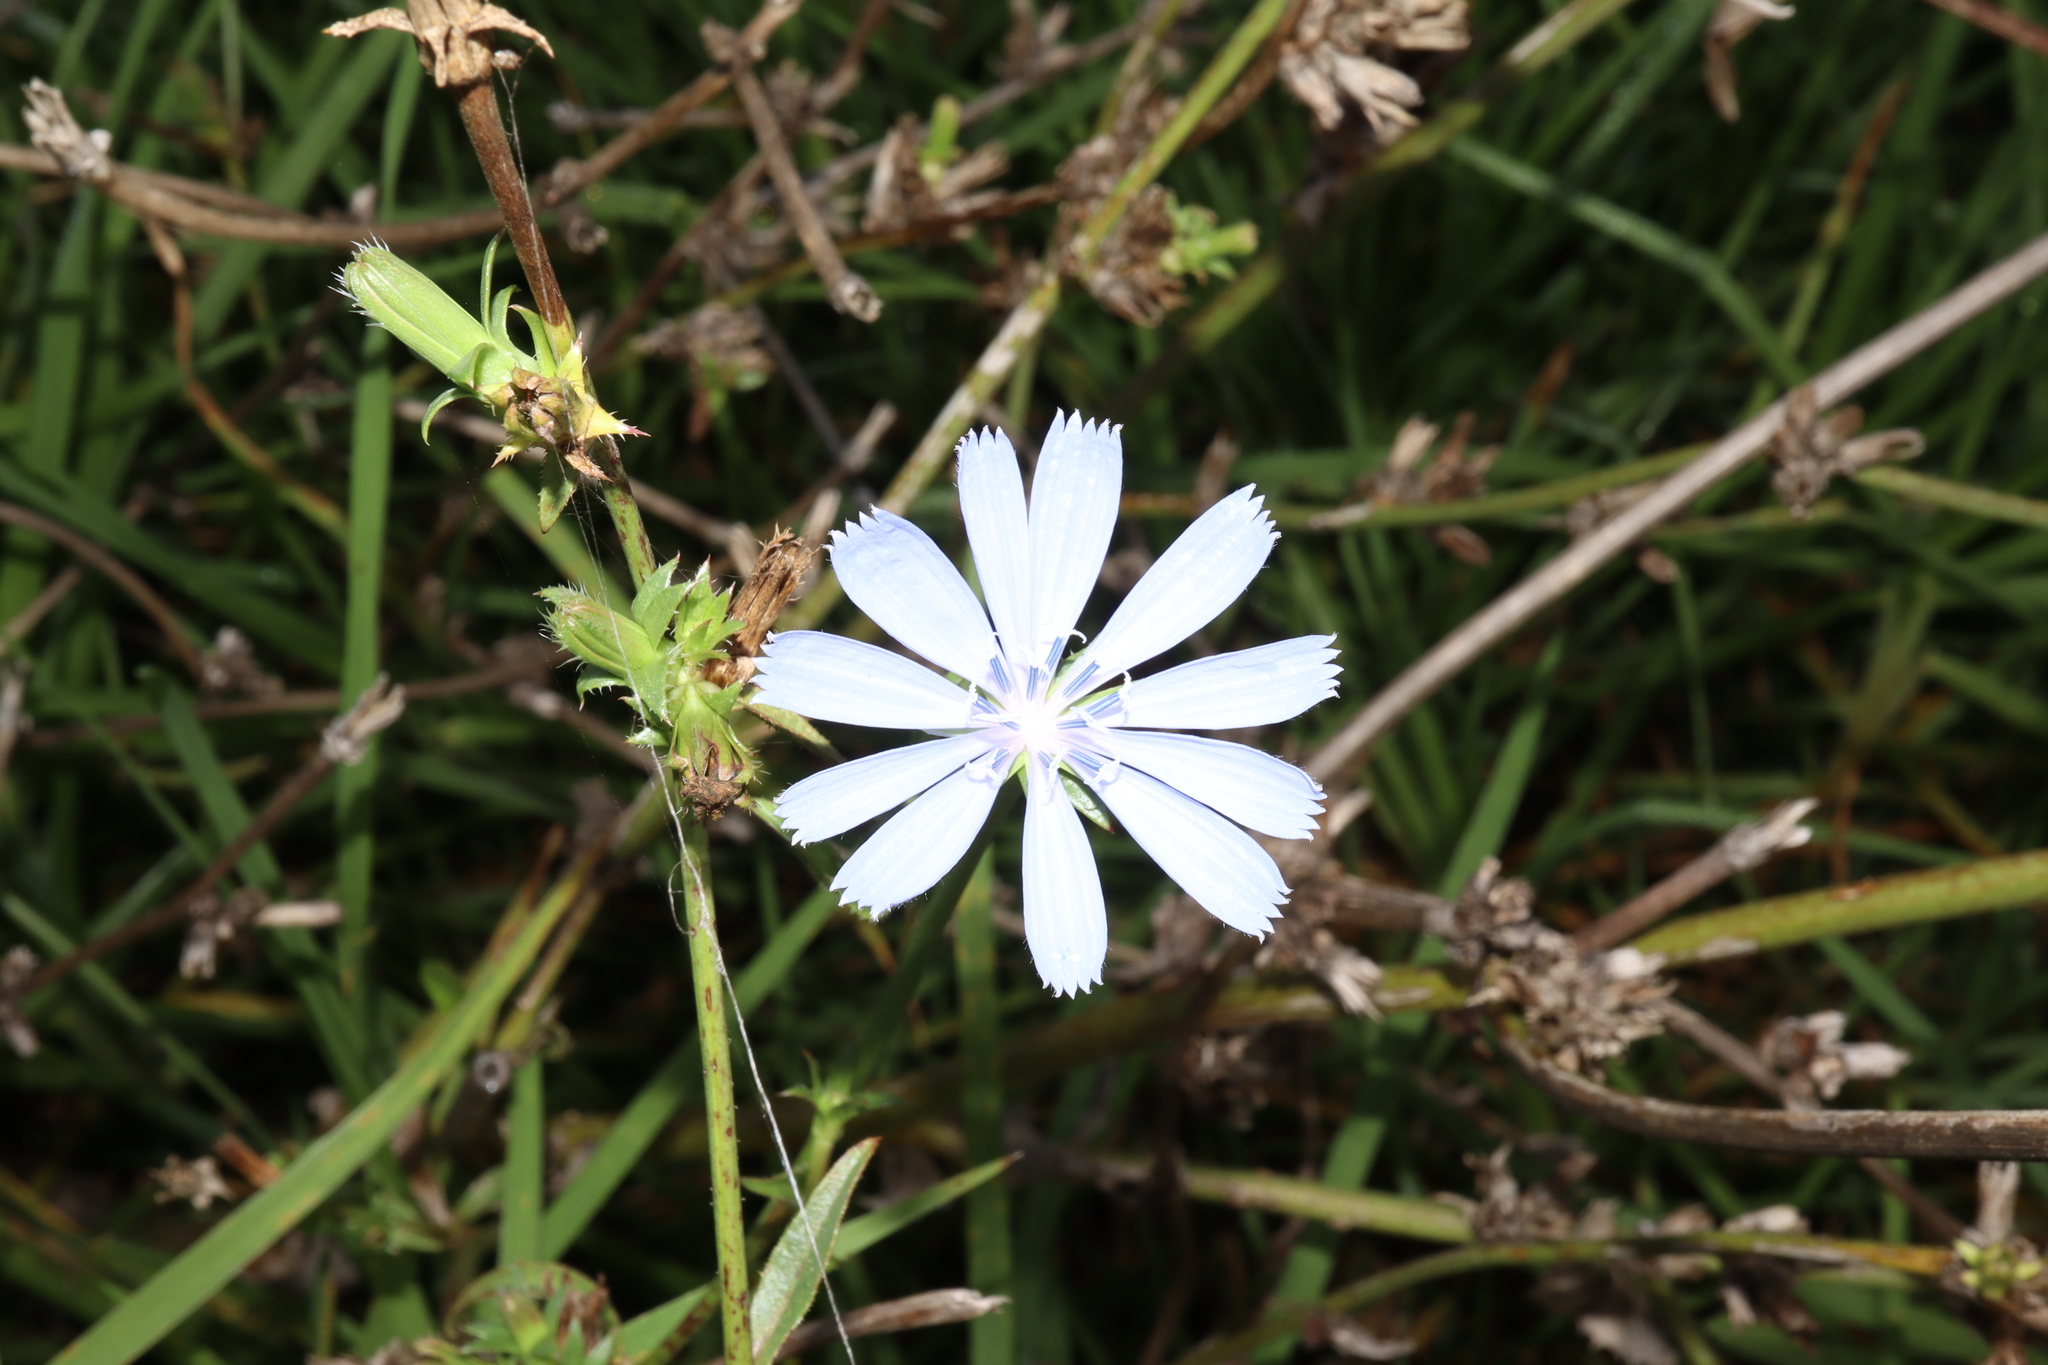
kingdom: Plantae
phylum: Tracheophyta
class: Magnoliopsida
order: Asterales
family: Asteraceae
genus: Cichorium
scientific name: Cichorium intybus
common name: Chicory
